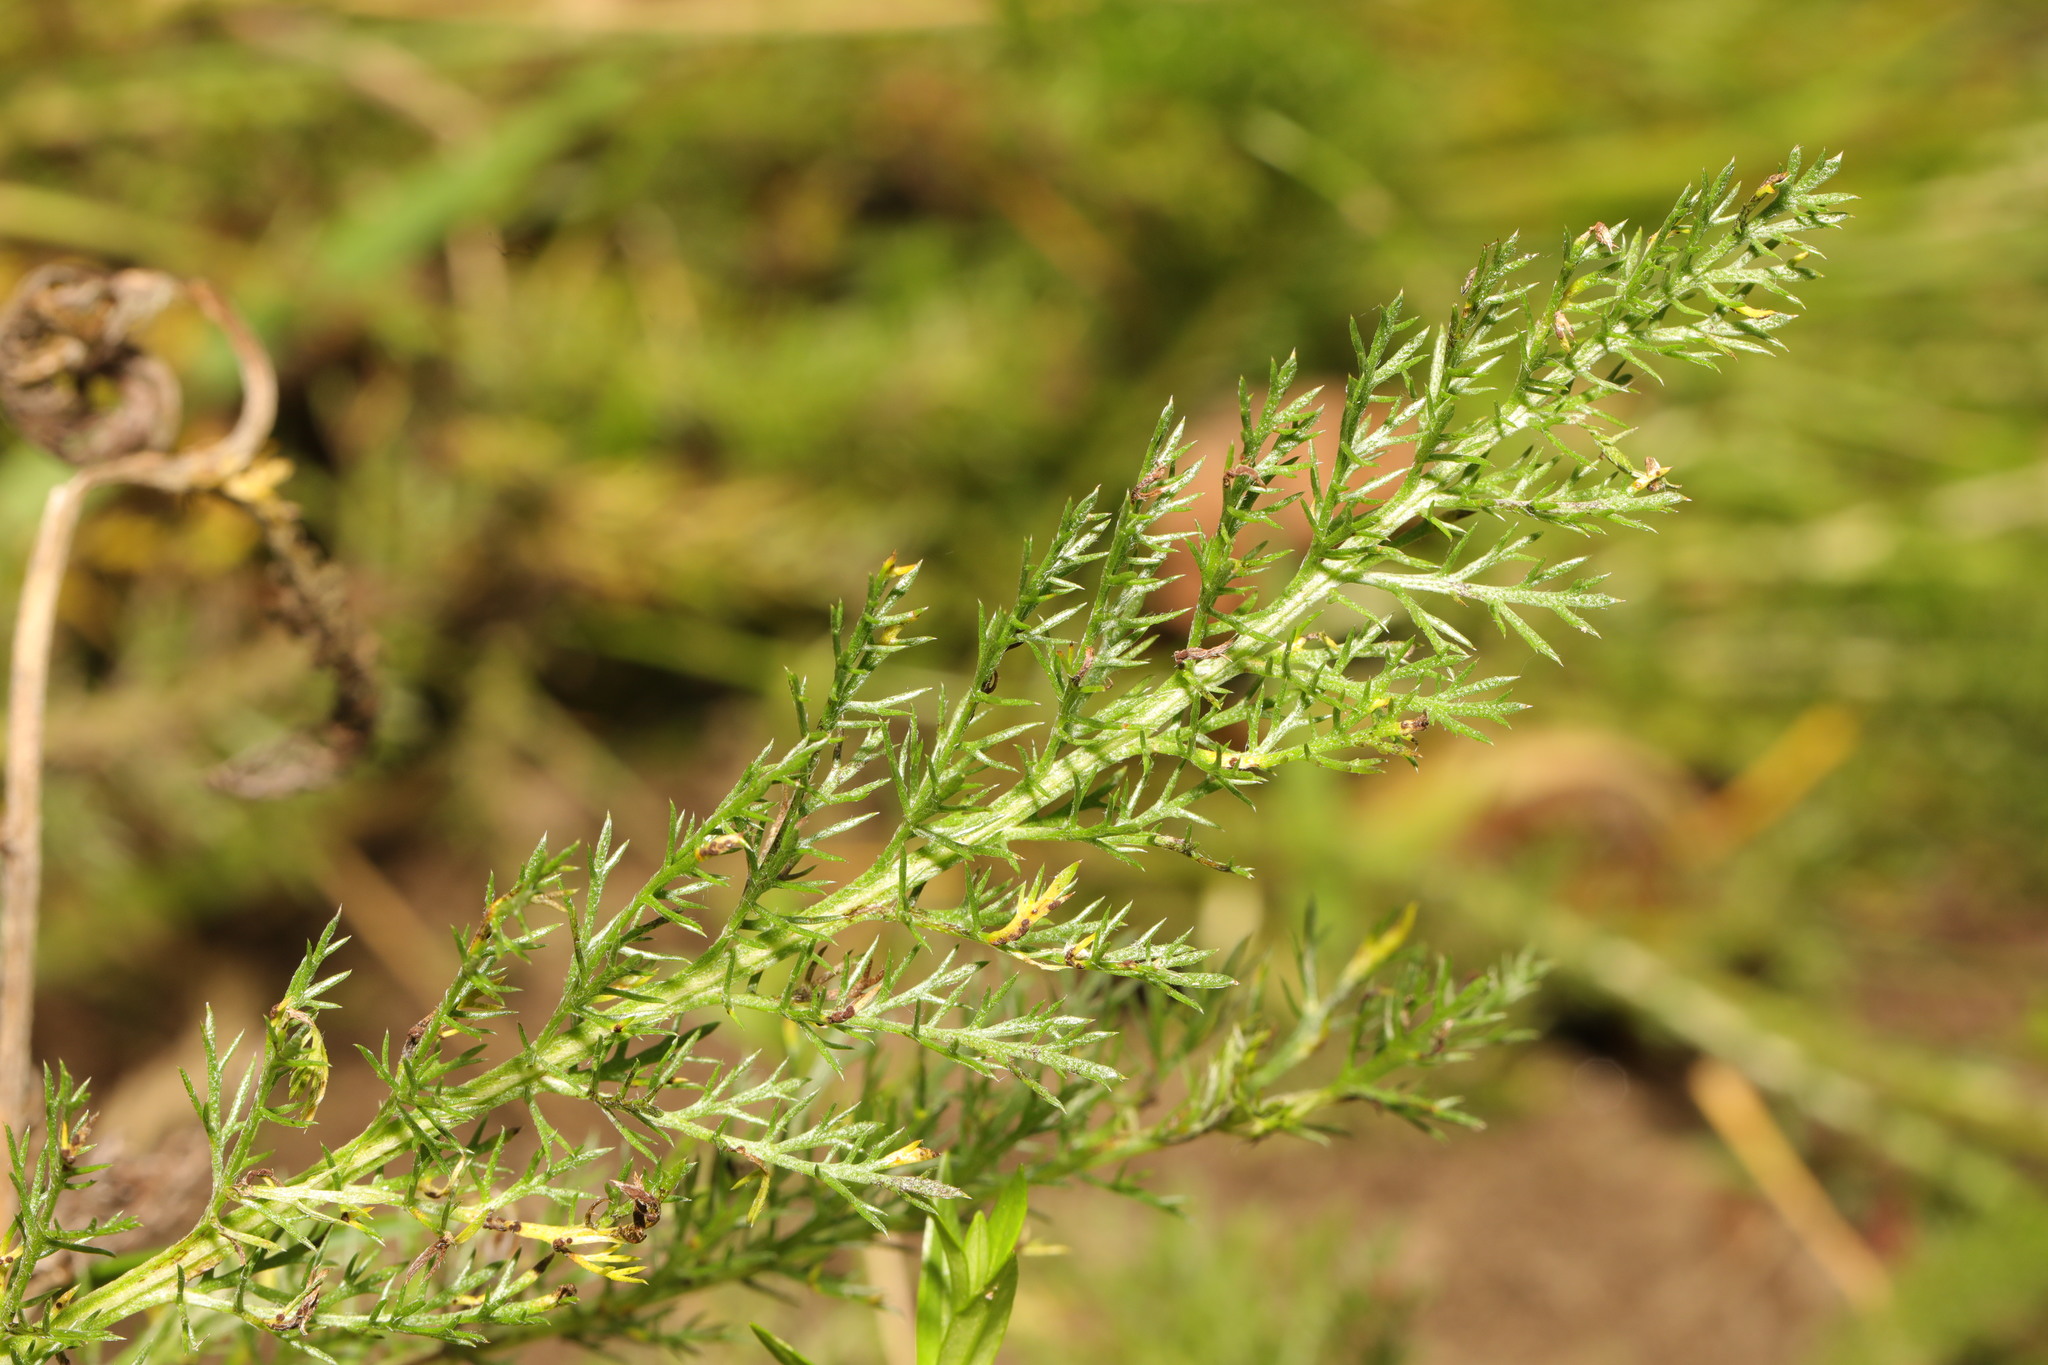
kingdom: Plantae
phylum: Tracheophyta
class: Magnoliopsida
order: Asterales
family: Asteraceae
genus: Achillea
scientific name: Achillea millefolium
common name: Yarrow
